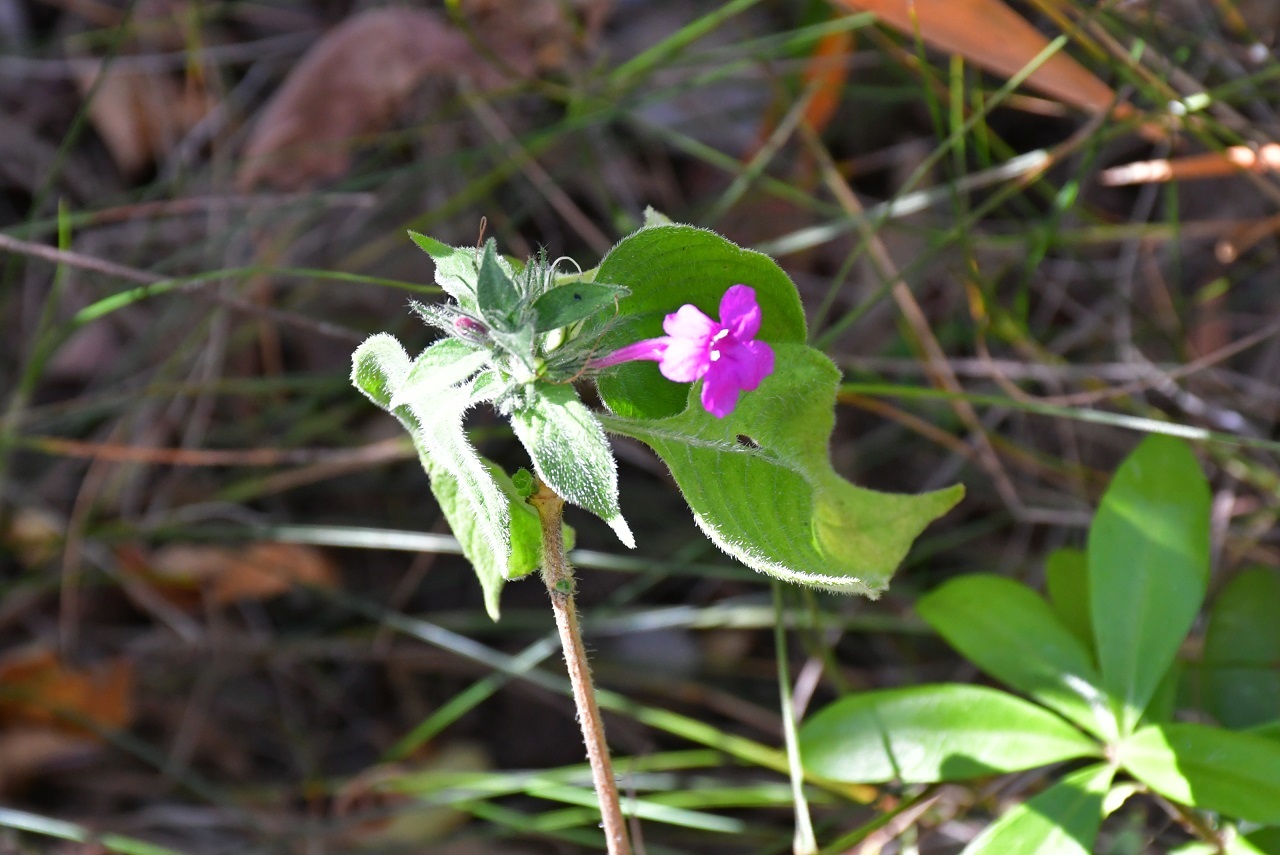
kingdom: Plantae
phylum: Tracheophyta
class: Magnoliopsida
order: Lamiales
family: Acanthaceae
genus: Ruellia
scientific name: Ruellia inundata
